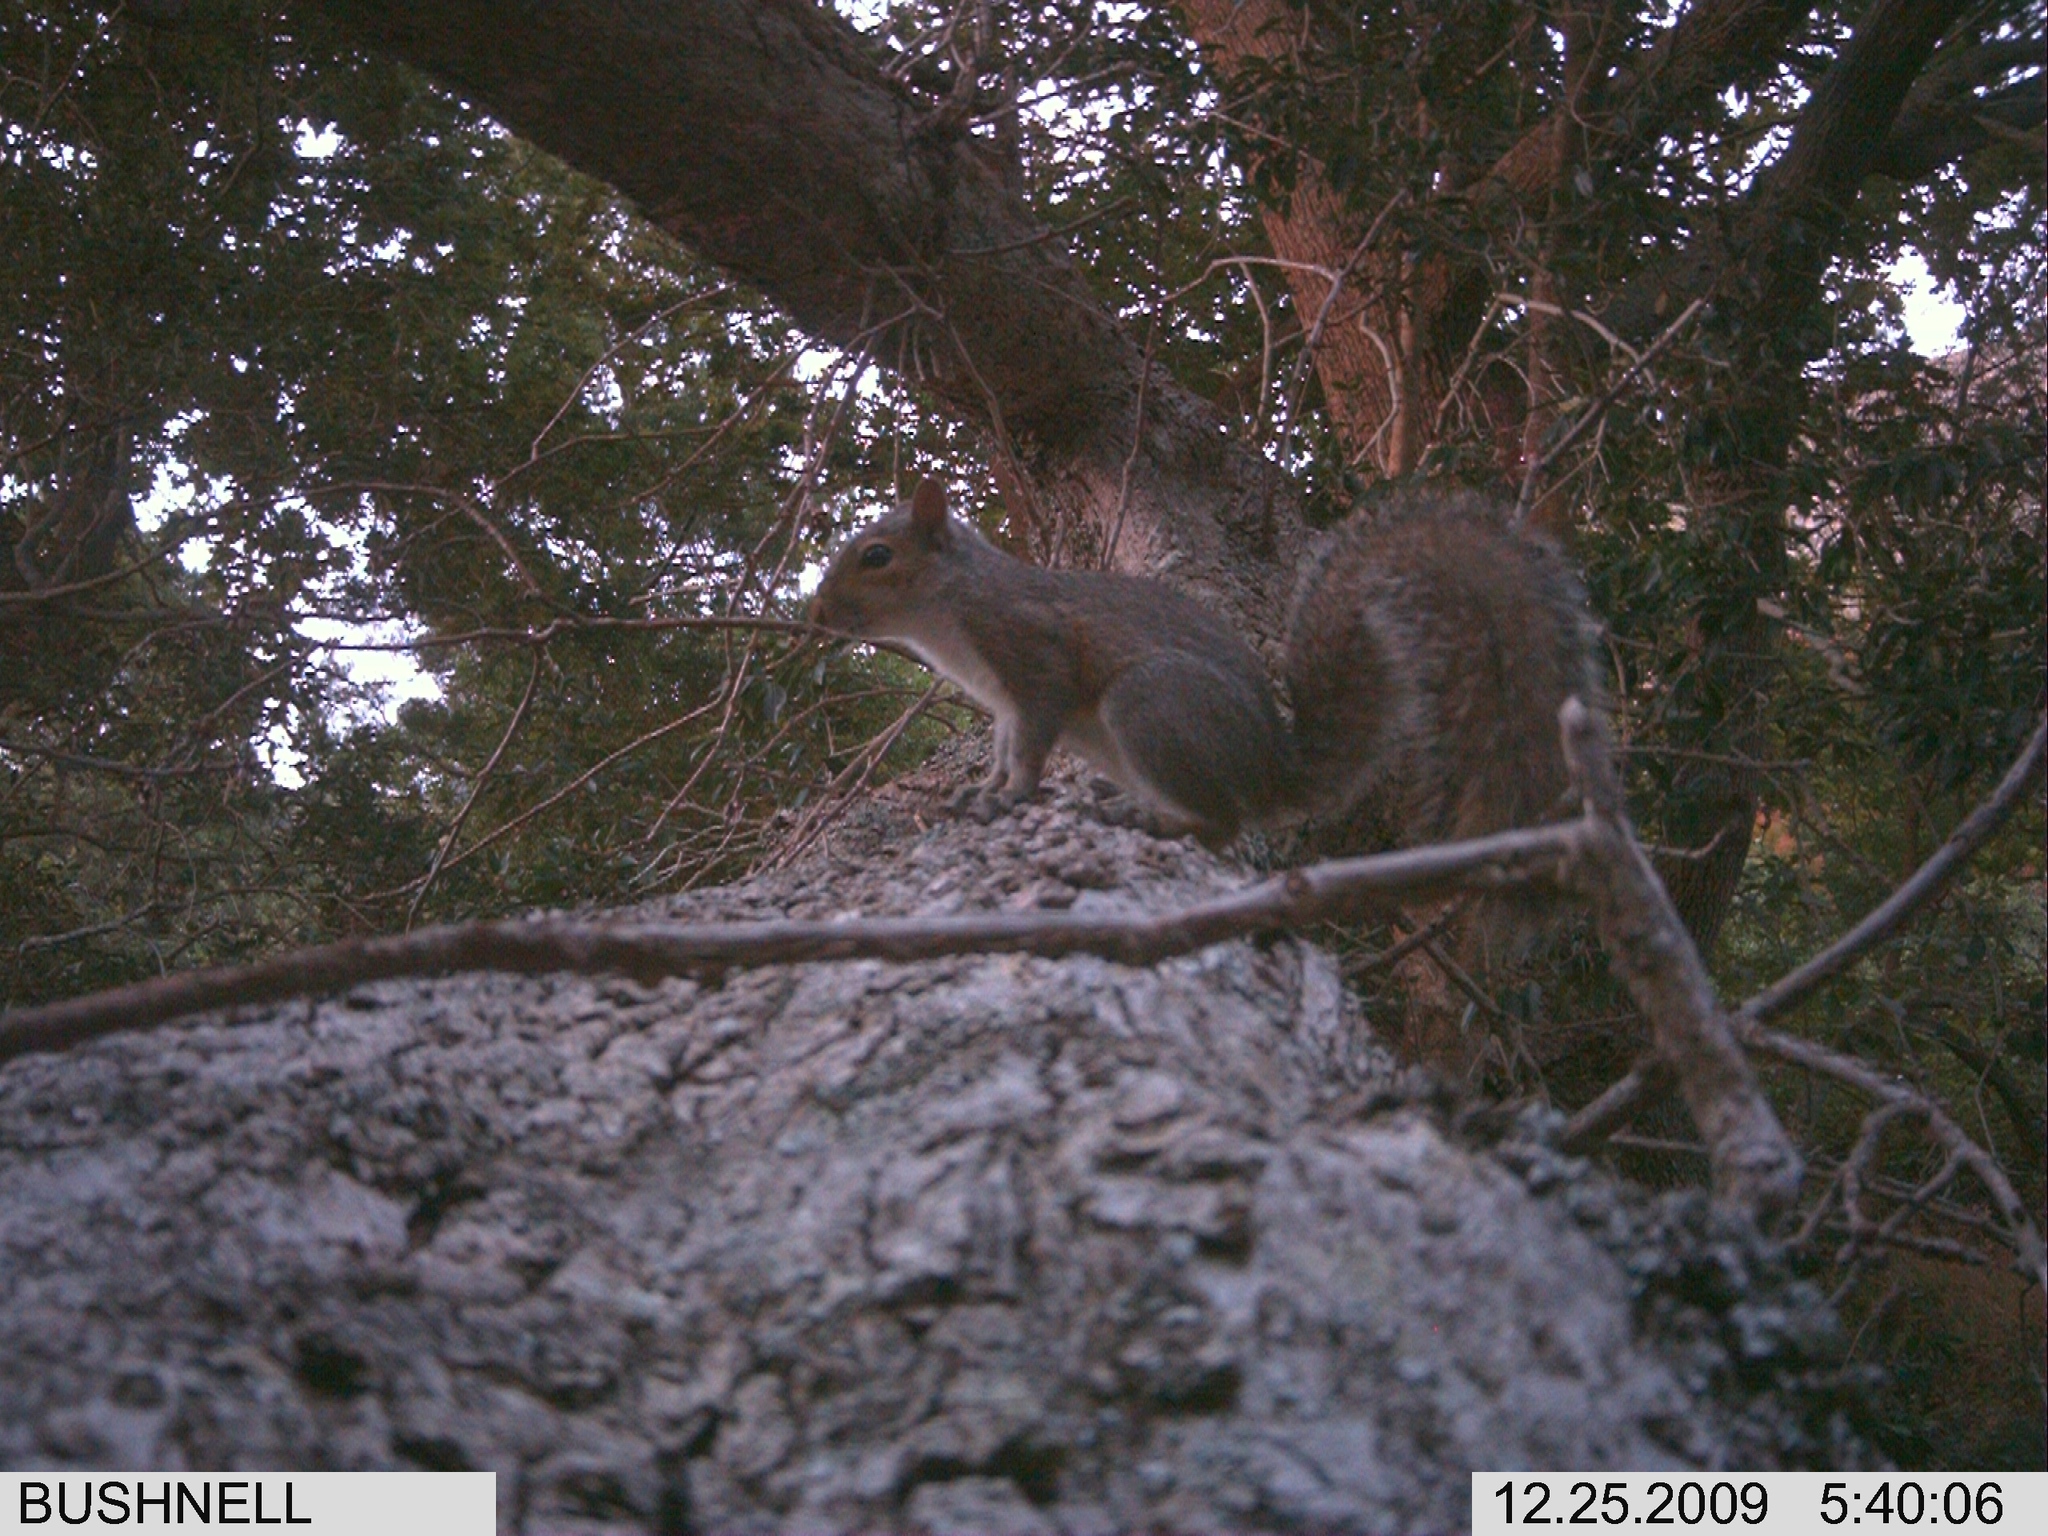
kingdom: Animalia
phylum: Chordata
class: Mammalia
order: Rodentia
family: Sciuridae
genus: Sciurus
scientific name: Sciurus carolinensis
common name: Eastern gray squirrel
